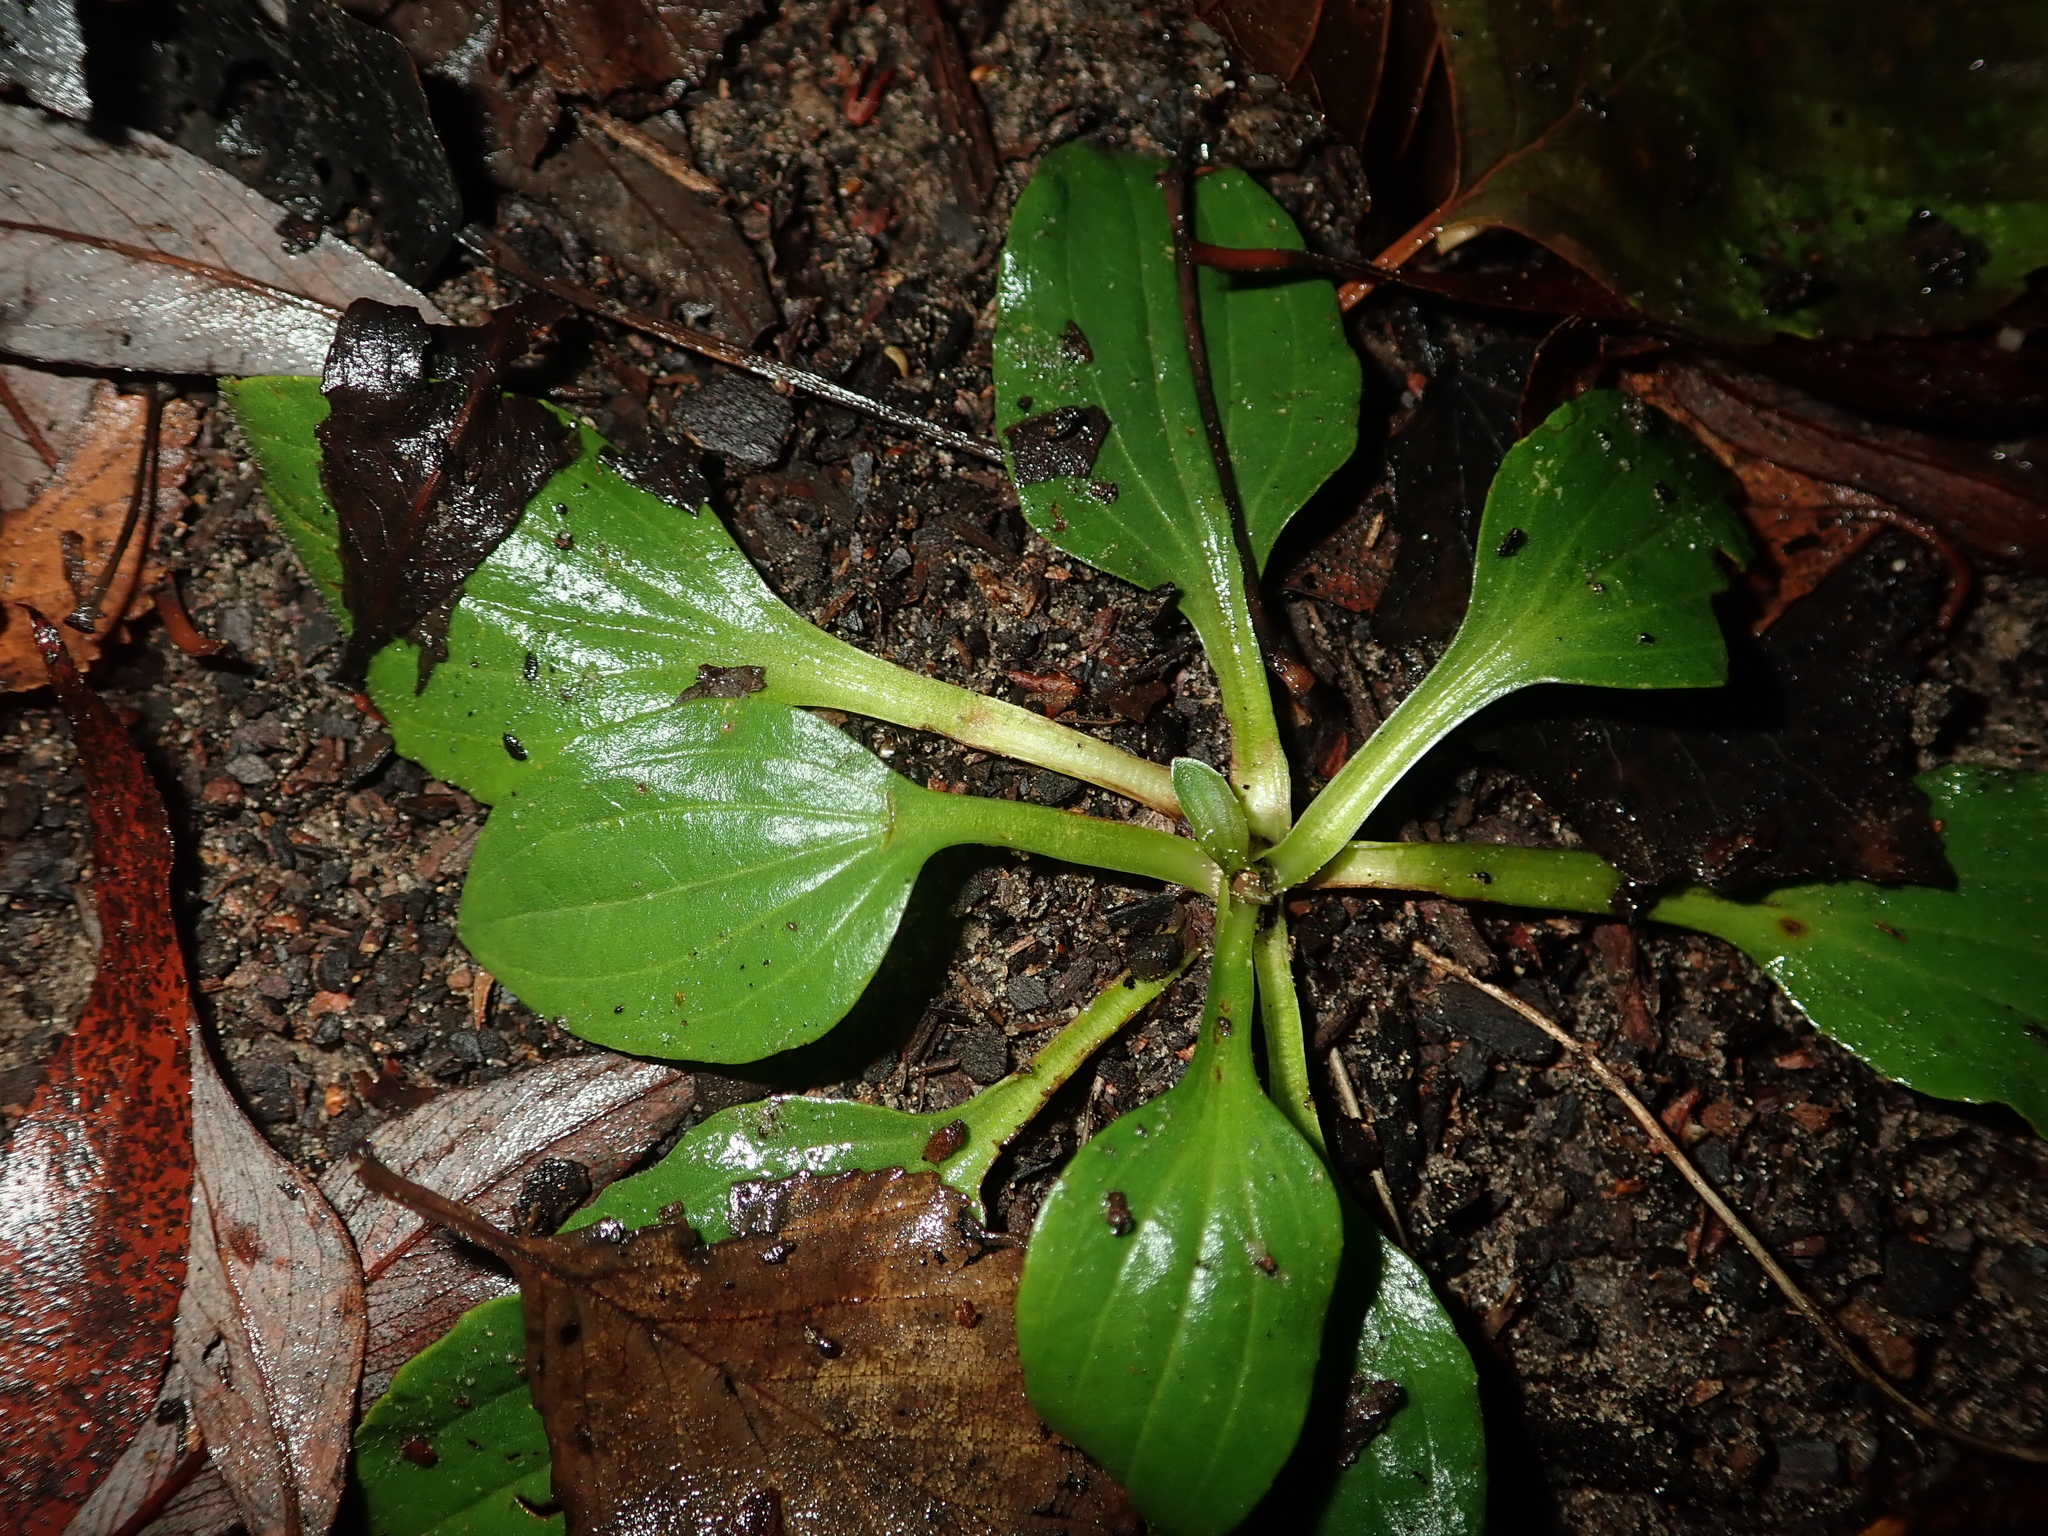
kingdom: Plantae
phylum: Tracheophyta
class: Magnoliopsida
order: Lamiales
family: Plantaginaceae
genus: Plantago
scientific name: Plantago major
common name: Common plantain
